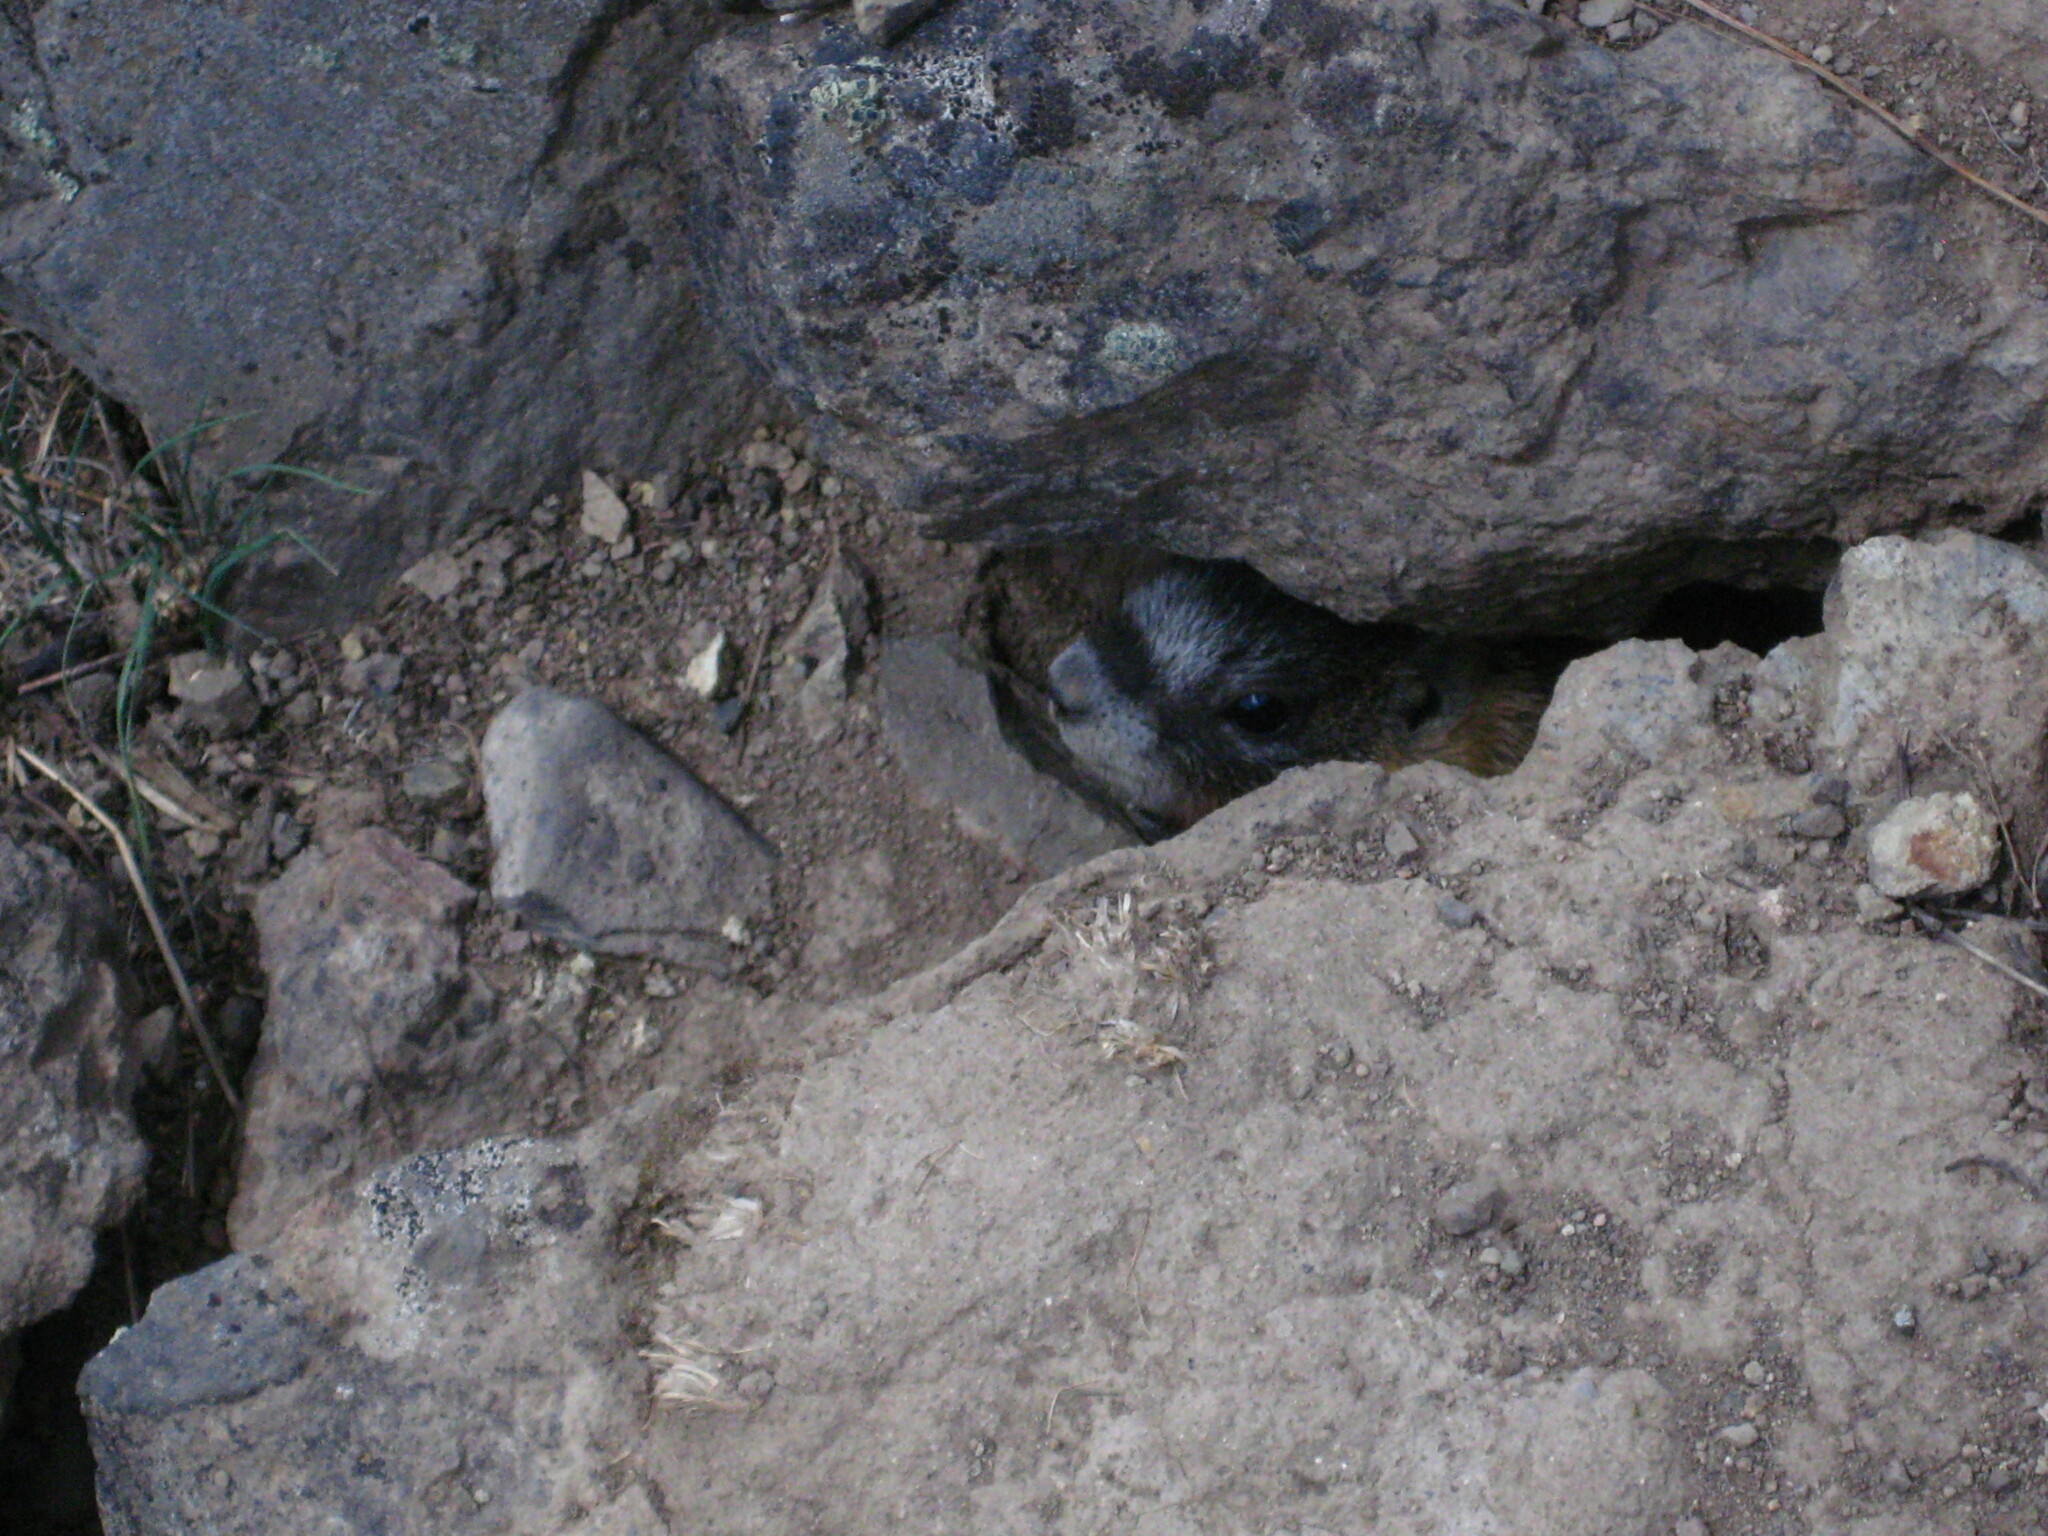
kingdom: Animalia
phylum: Chordata
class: Mammalia
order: Rodentia
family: Sciuridae
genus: Marmota
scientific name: Marmota flaviventris
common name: Yellow-bellied marmot
